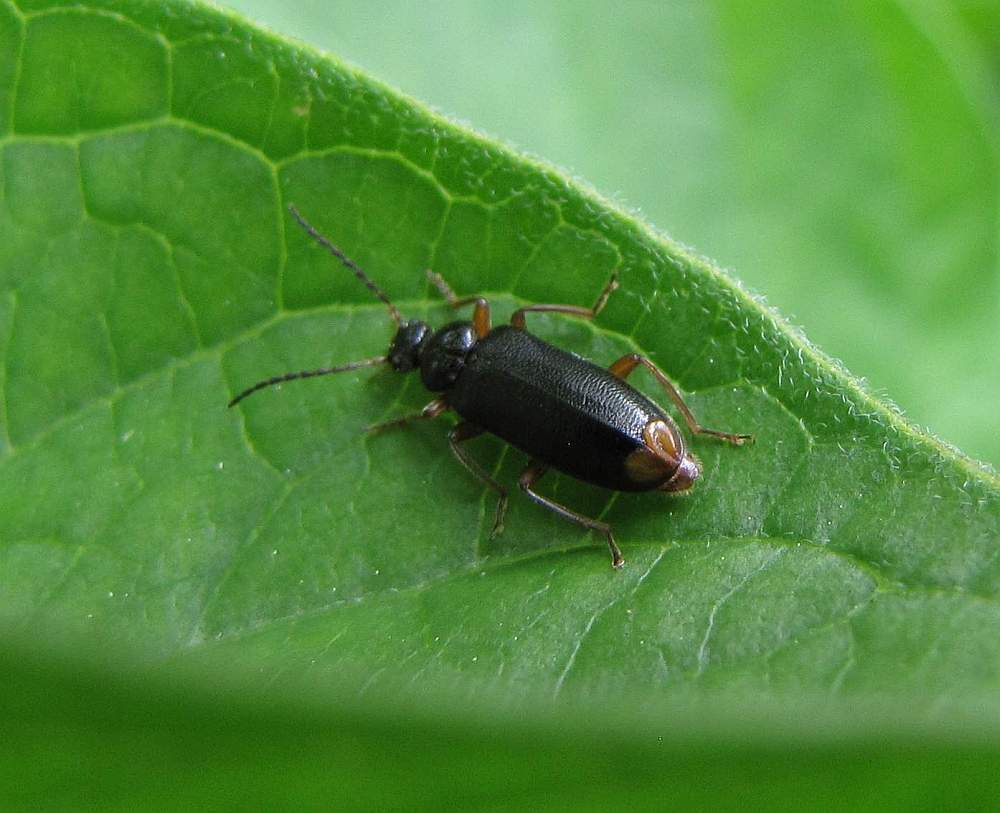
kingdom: Animalia
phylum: Arthropoda
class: Insecta
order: Coleoptera
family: Pyrochroidae
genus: Pedilus
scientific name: Pedilus elegans
